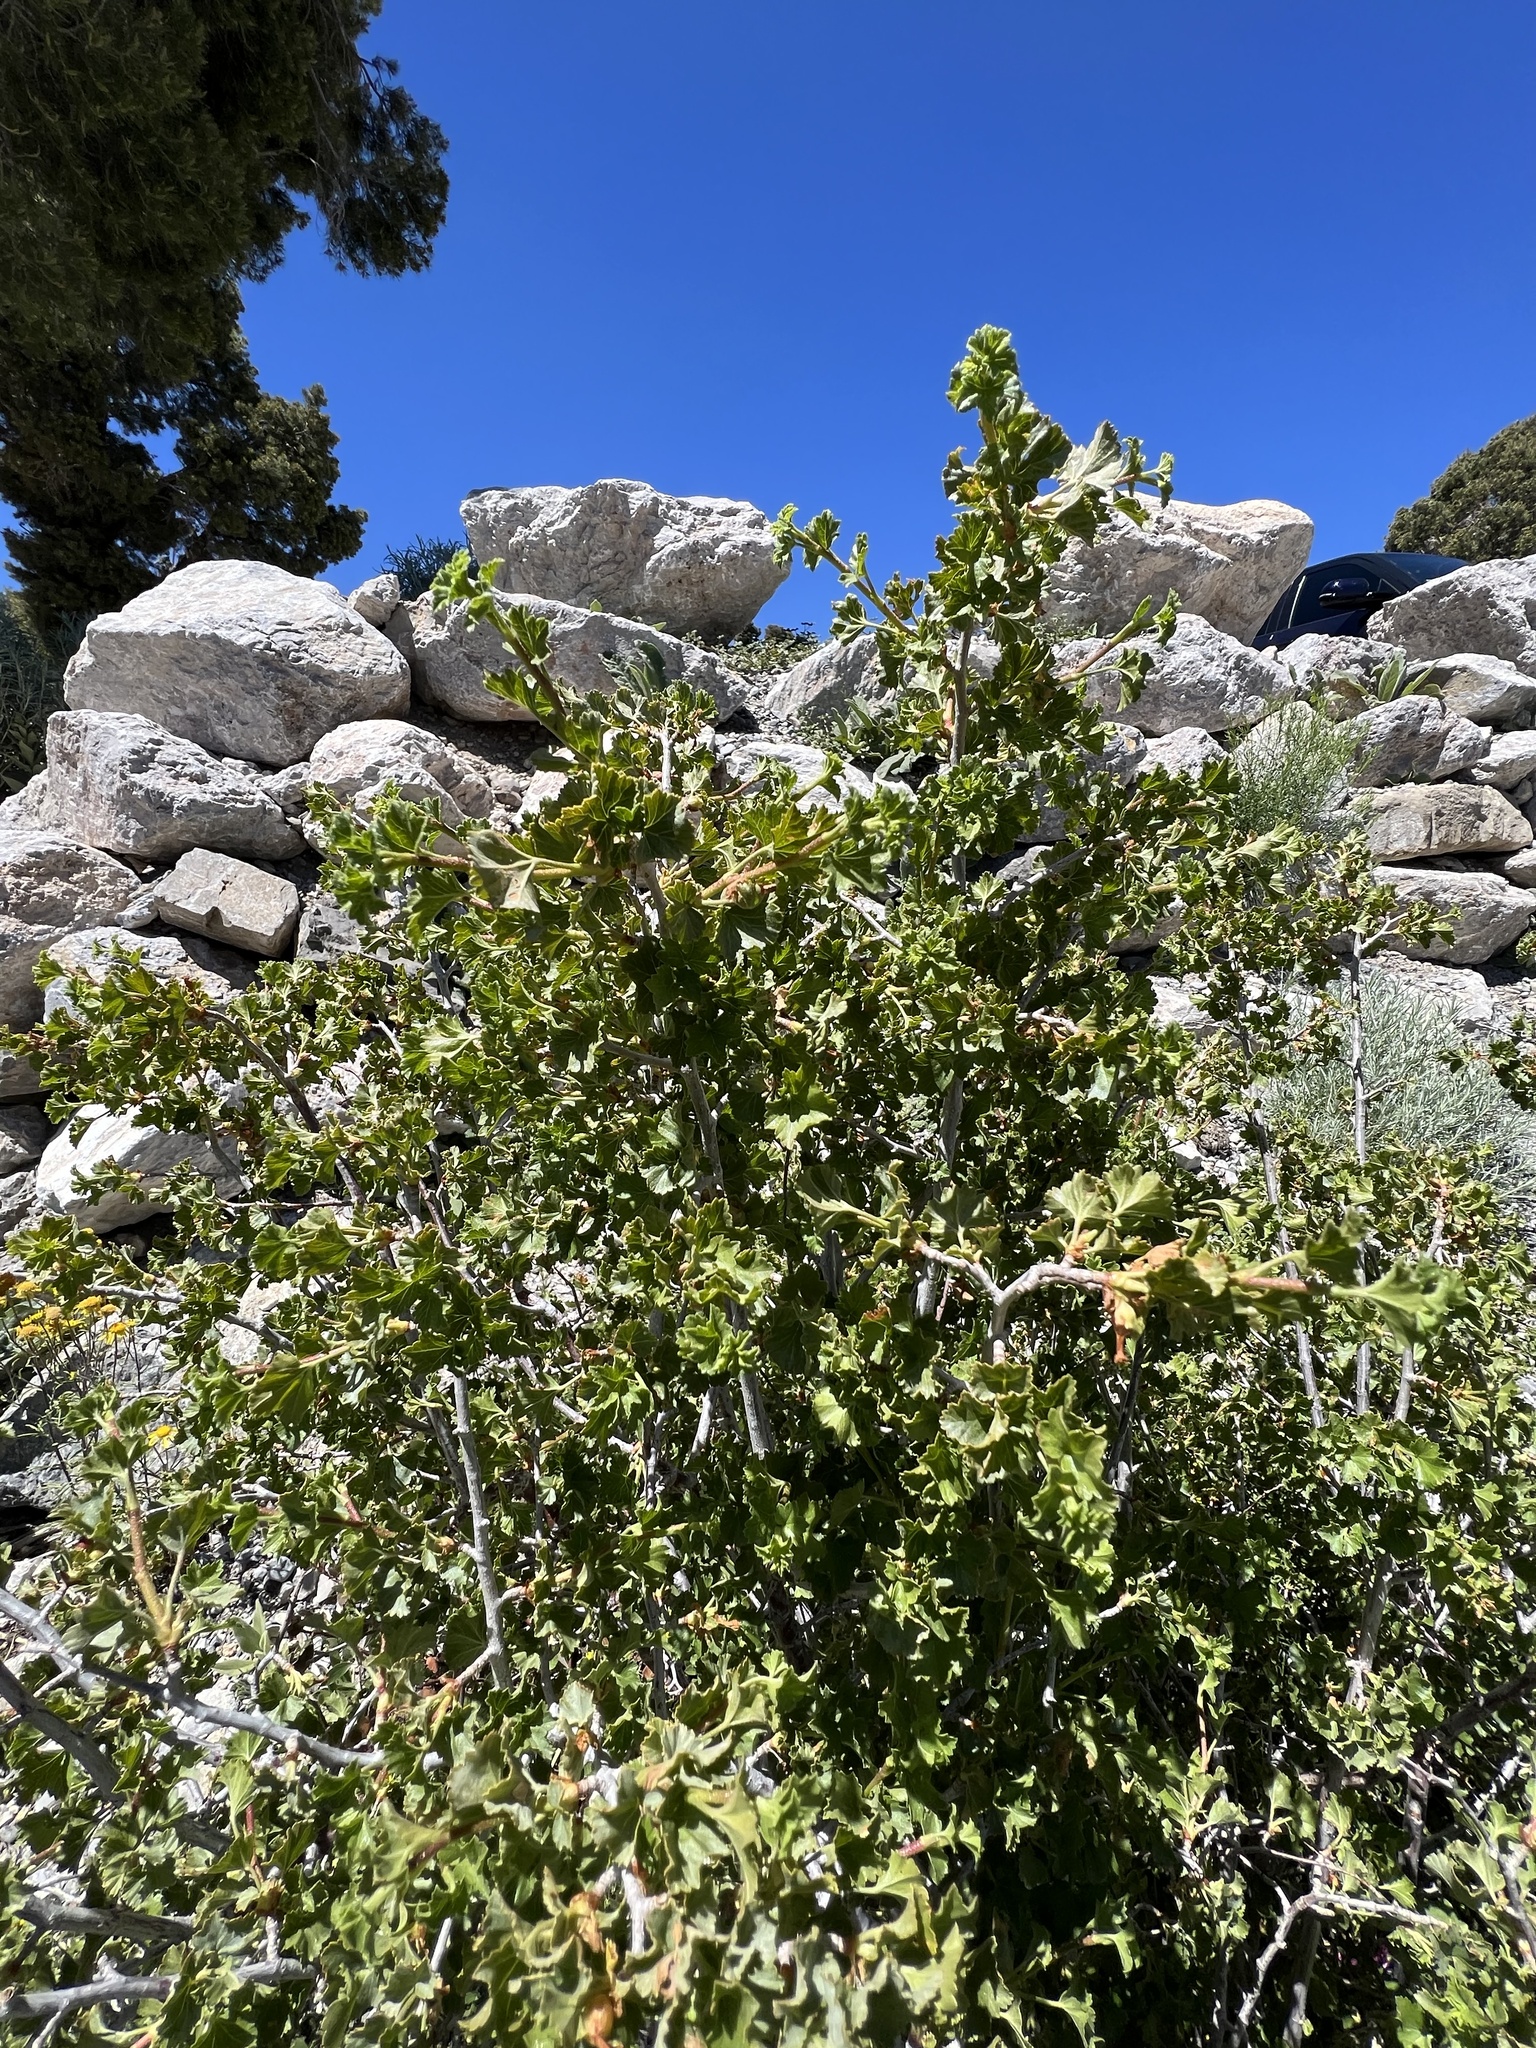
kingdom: Plantae
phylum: Tracheophyta
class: Magnoliopsida
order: Saxifragales
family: Grossulariaceae
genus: Ribes
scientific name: Ribes cereum
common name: Wax currant
